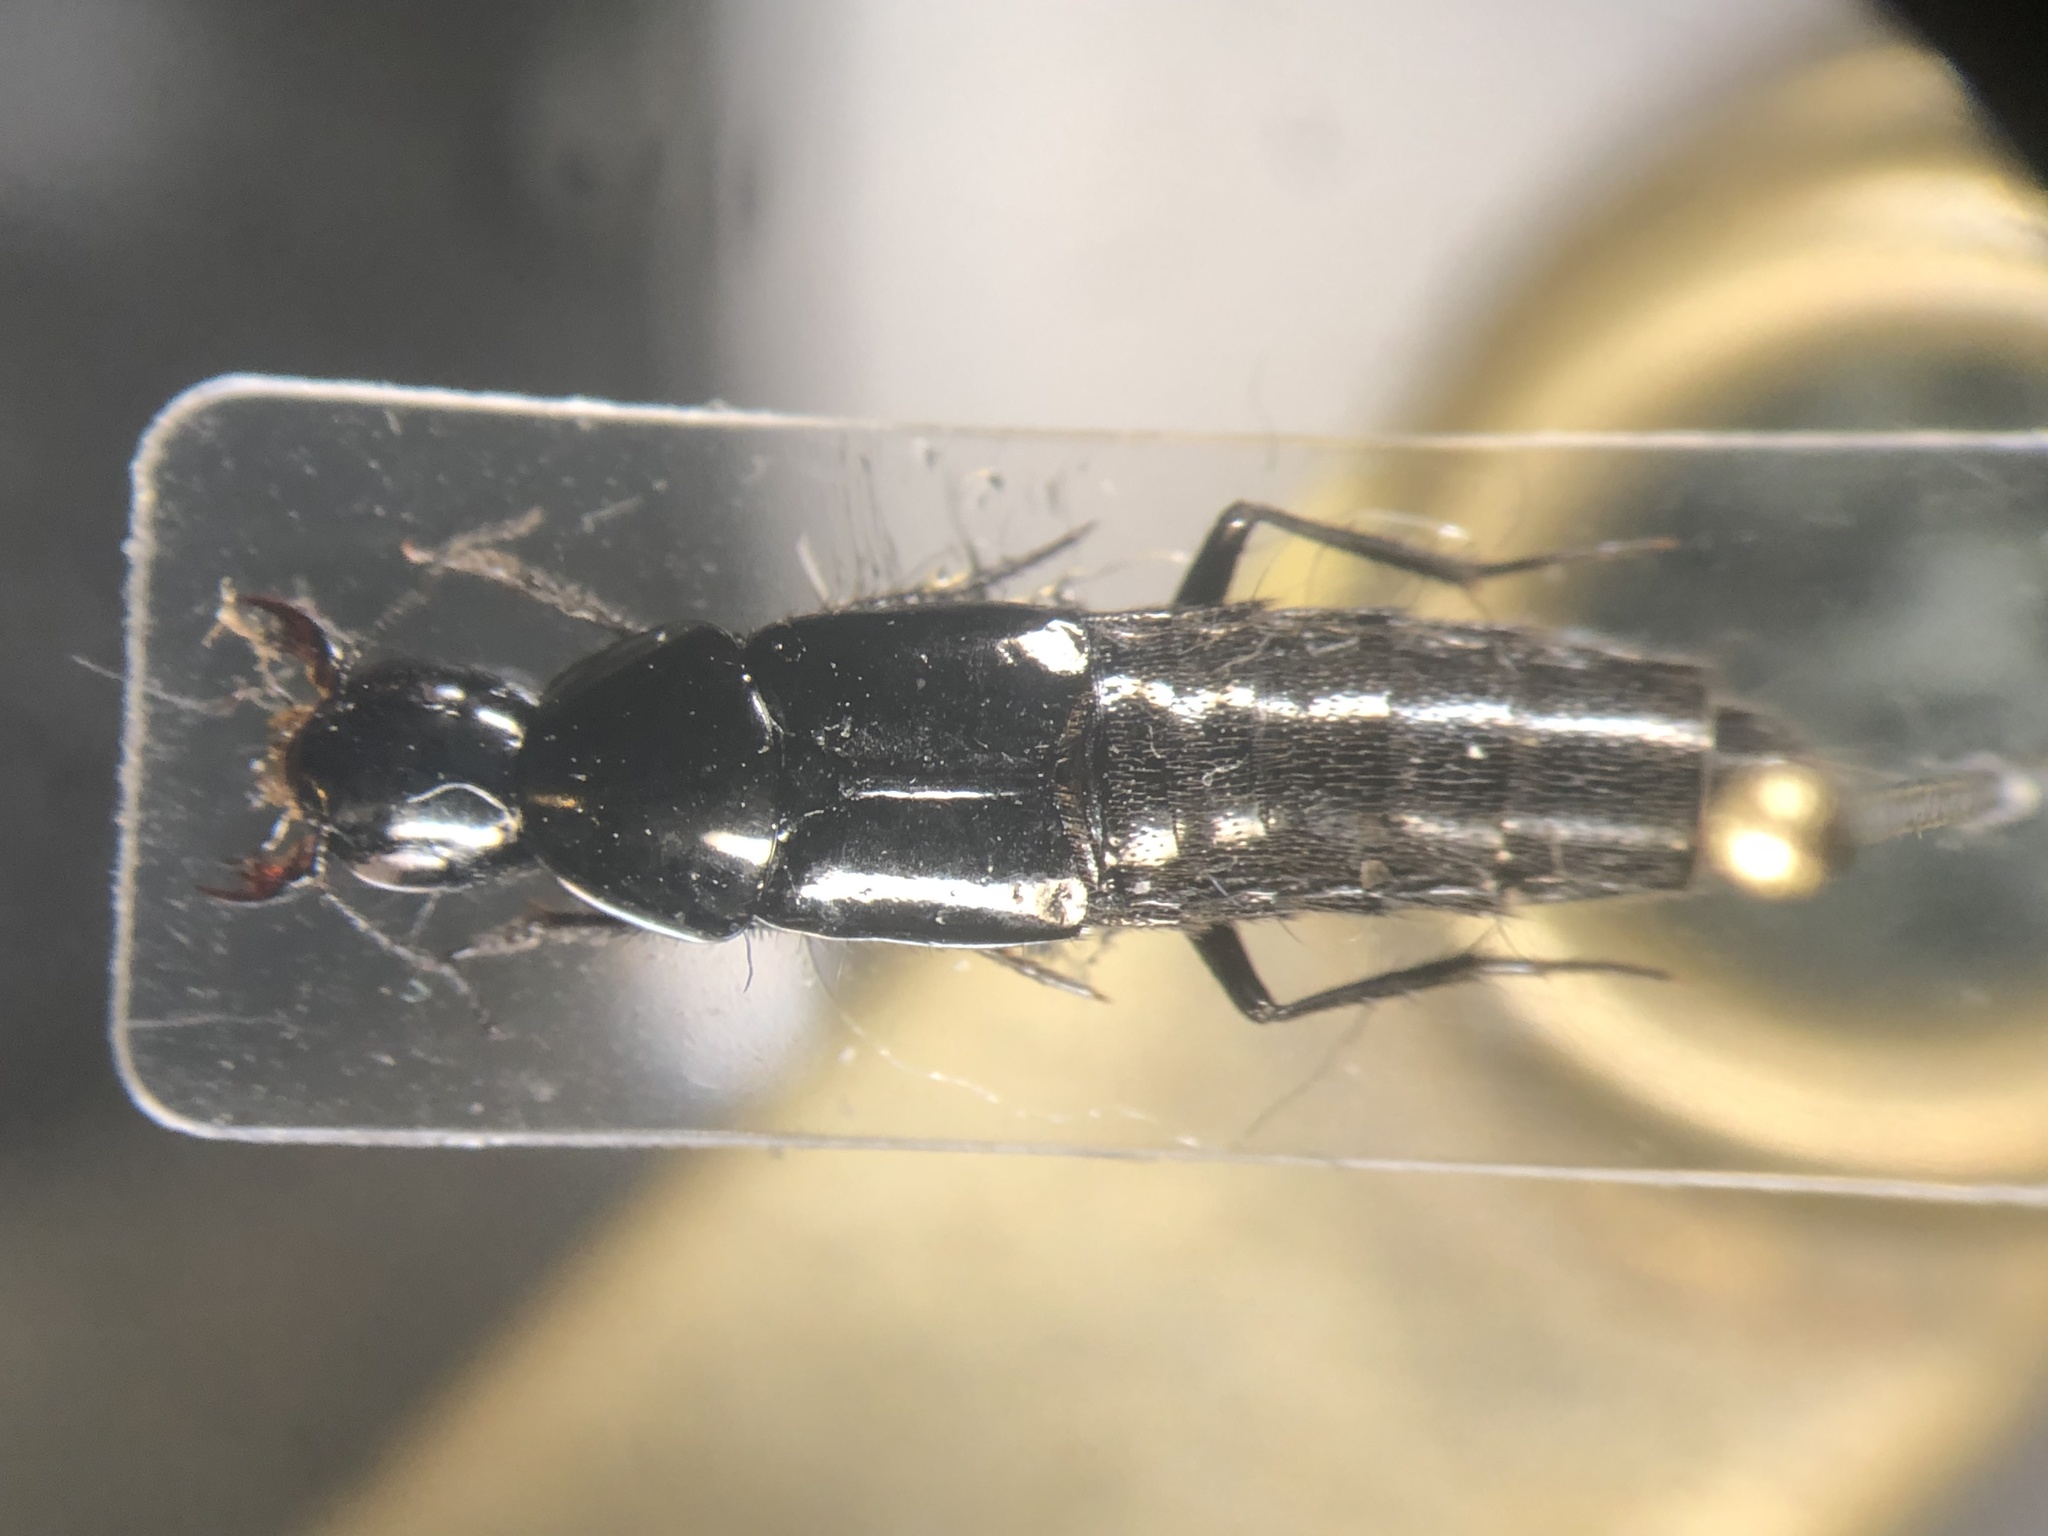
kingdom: Animalia
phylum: Arthropoda
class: Insecta
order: Coleoptera
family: Staphylinidae
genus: Anaquedius
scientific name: Anaquedius vernix
